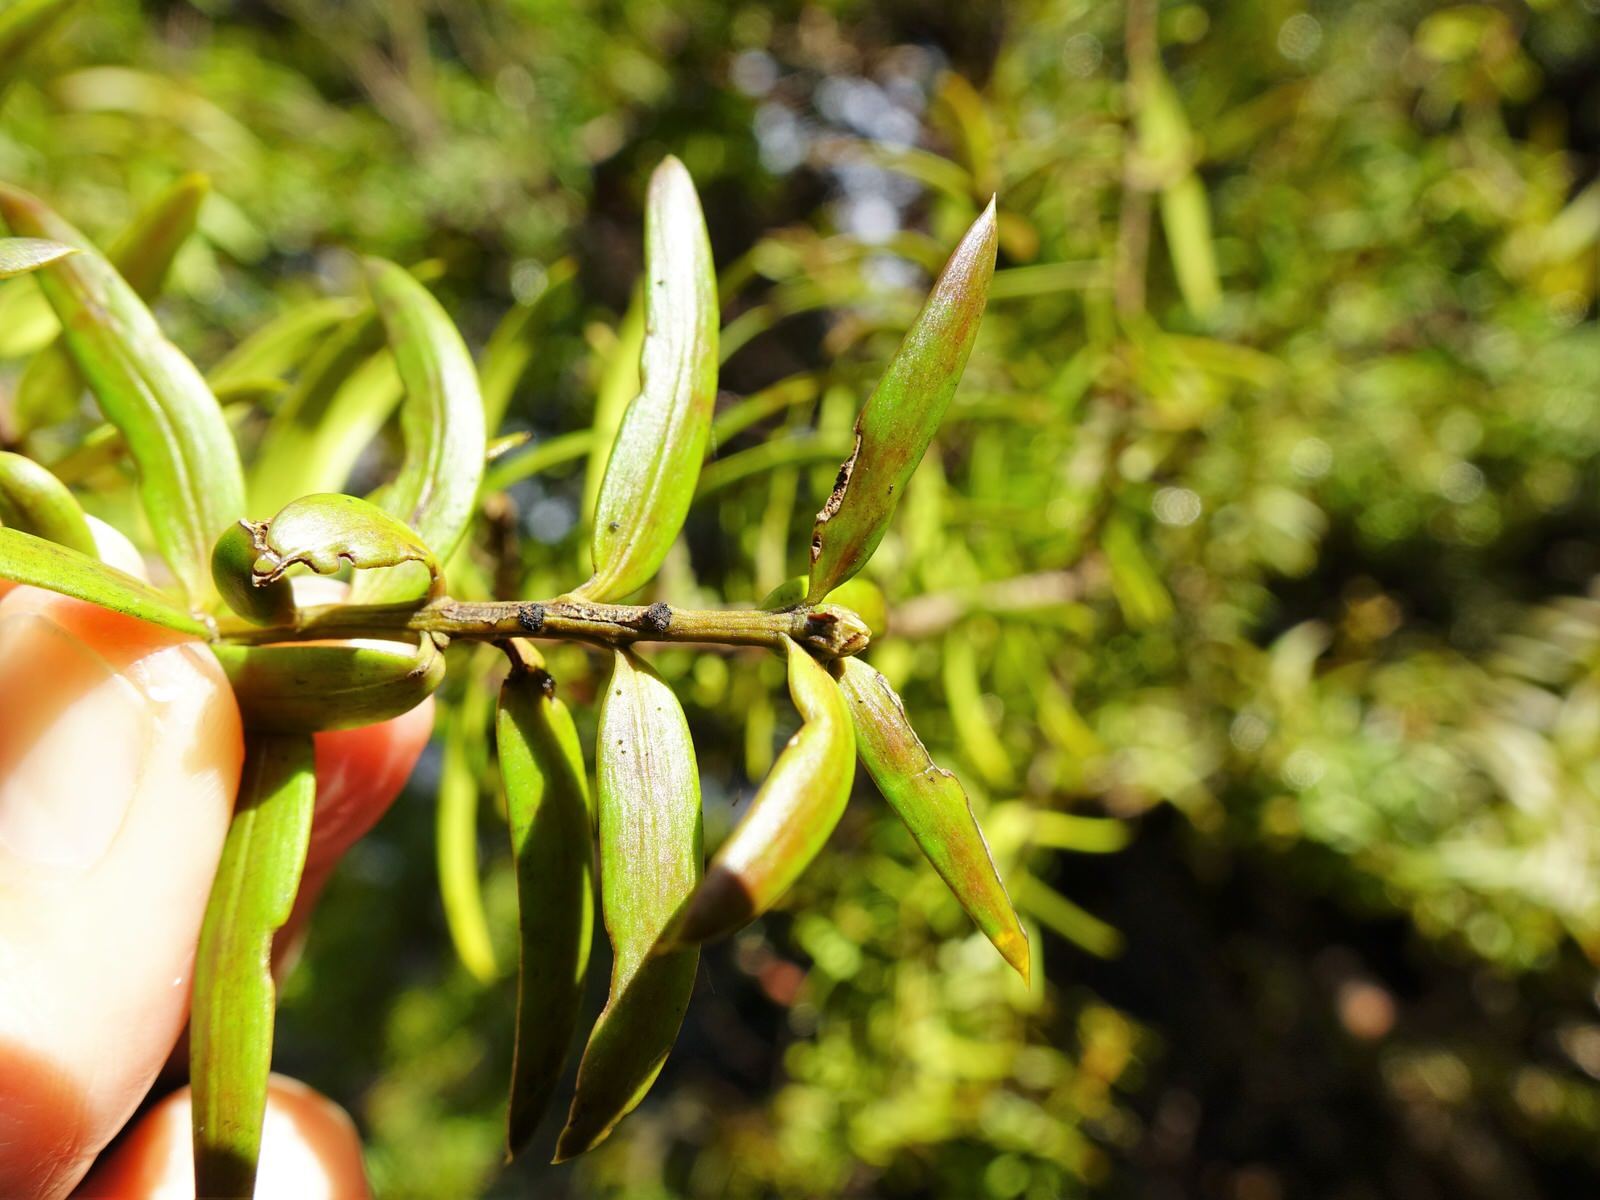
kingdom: Plantae
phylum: Tracheophyta
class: Pinopsida
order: Pinales
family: Podocarpaceae
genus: Podocarpus
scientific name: Podocarpus totara
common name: Totara
